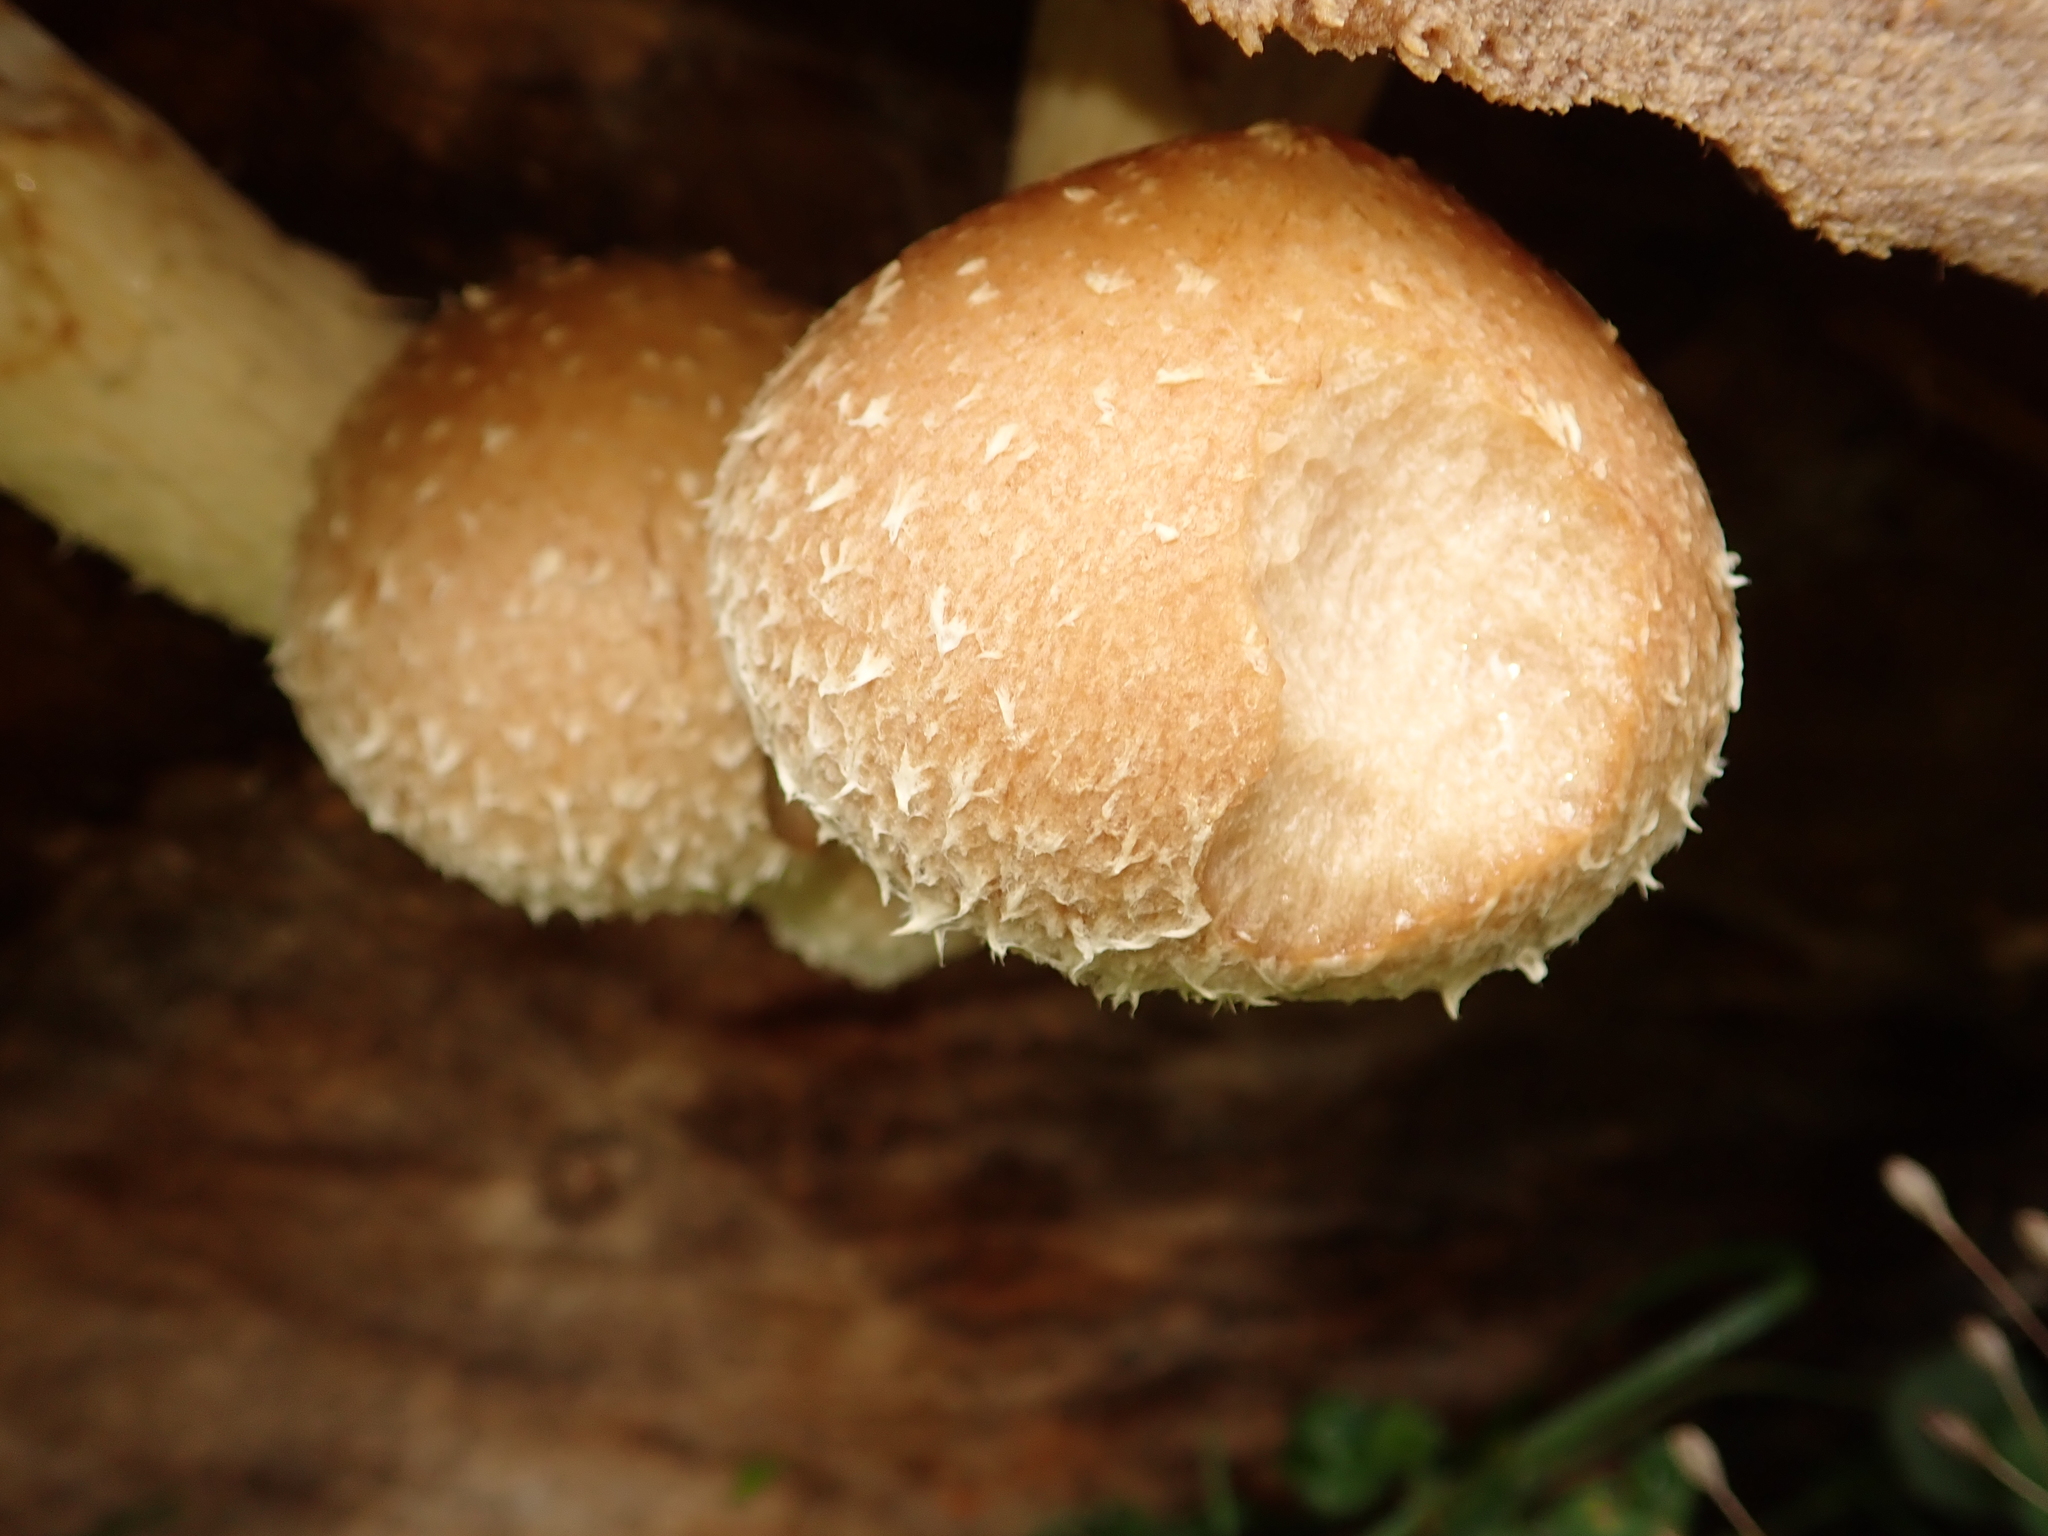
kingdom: Fungi
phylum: Basidiomycota
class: Agaricomycetes
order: Agaricales
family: Strophariaceae
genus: Pholiota
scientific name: Pholiota populnea
